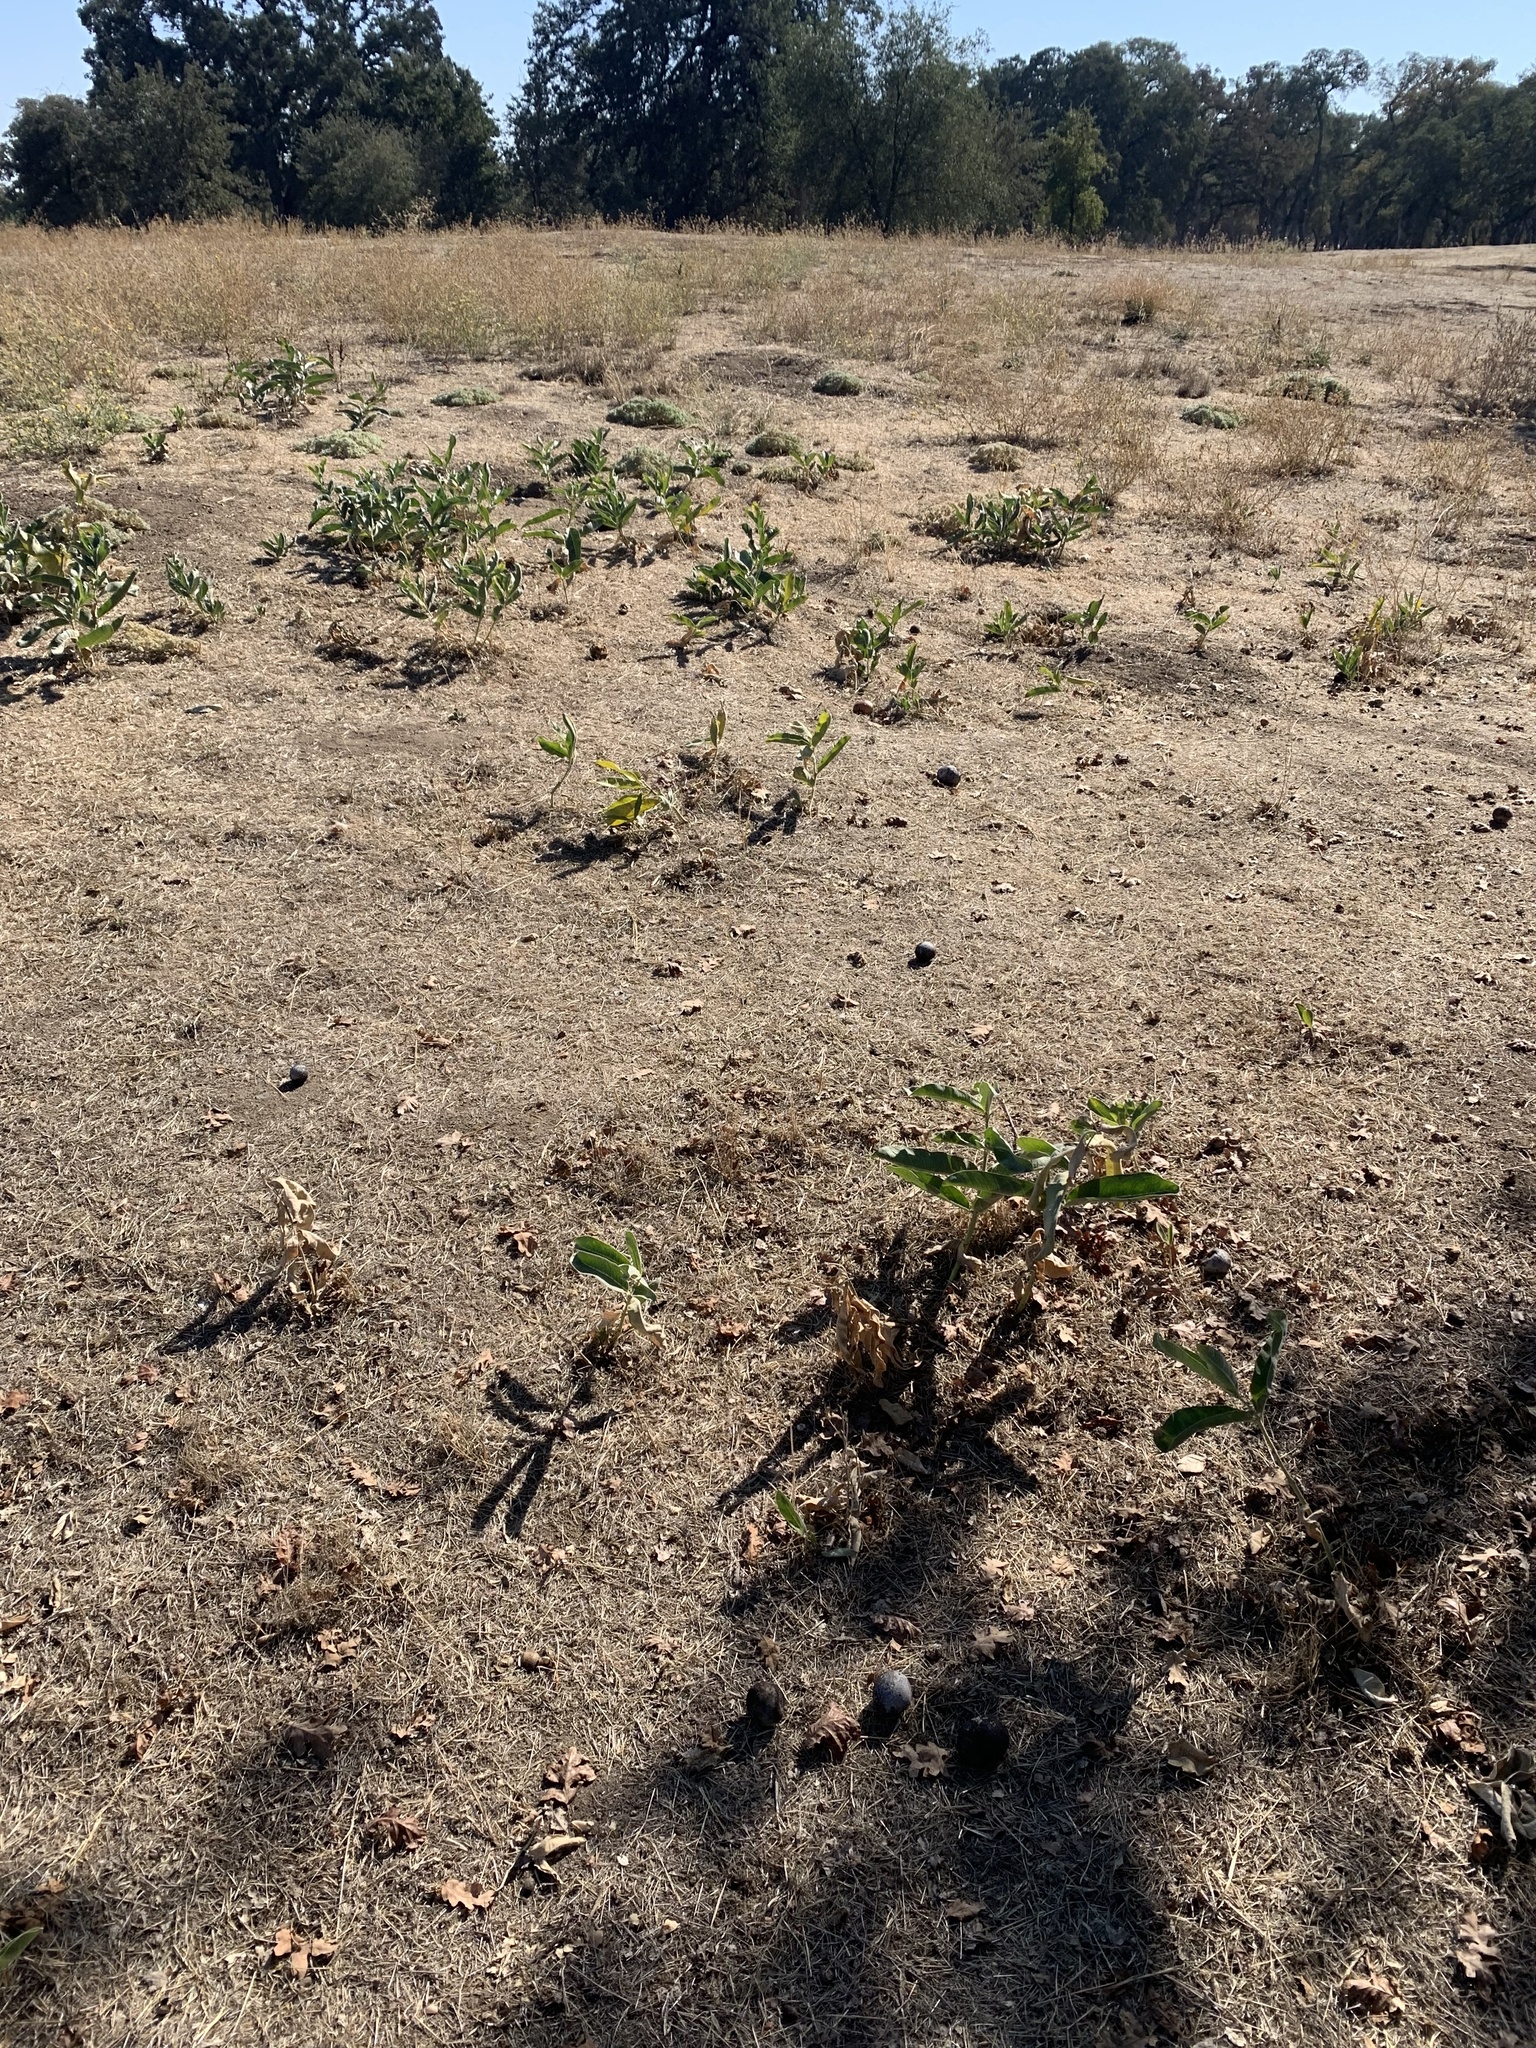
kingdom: Plantae
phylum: Tracheophyta
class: Magnoliopsida
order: Gentianales
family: Apocynaceae
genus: Asclepias
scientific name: Asclepias eriocarpa
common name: Indian milkweed
